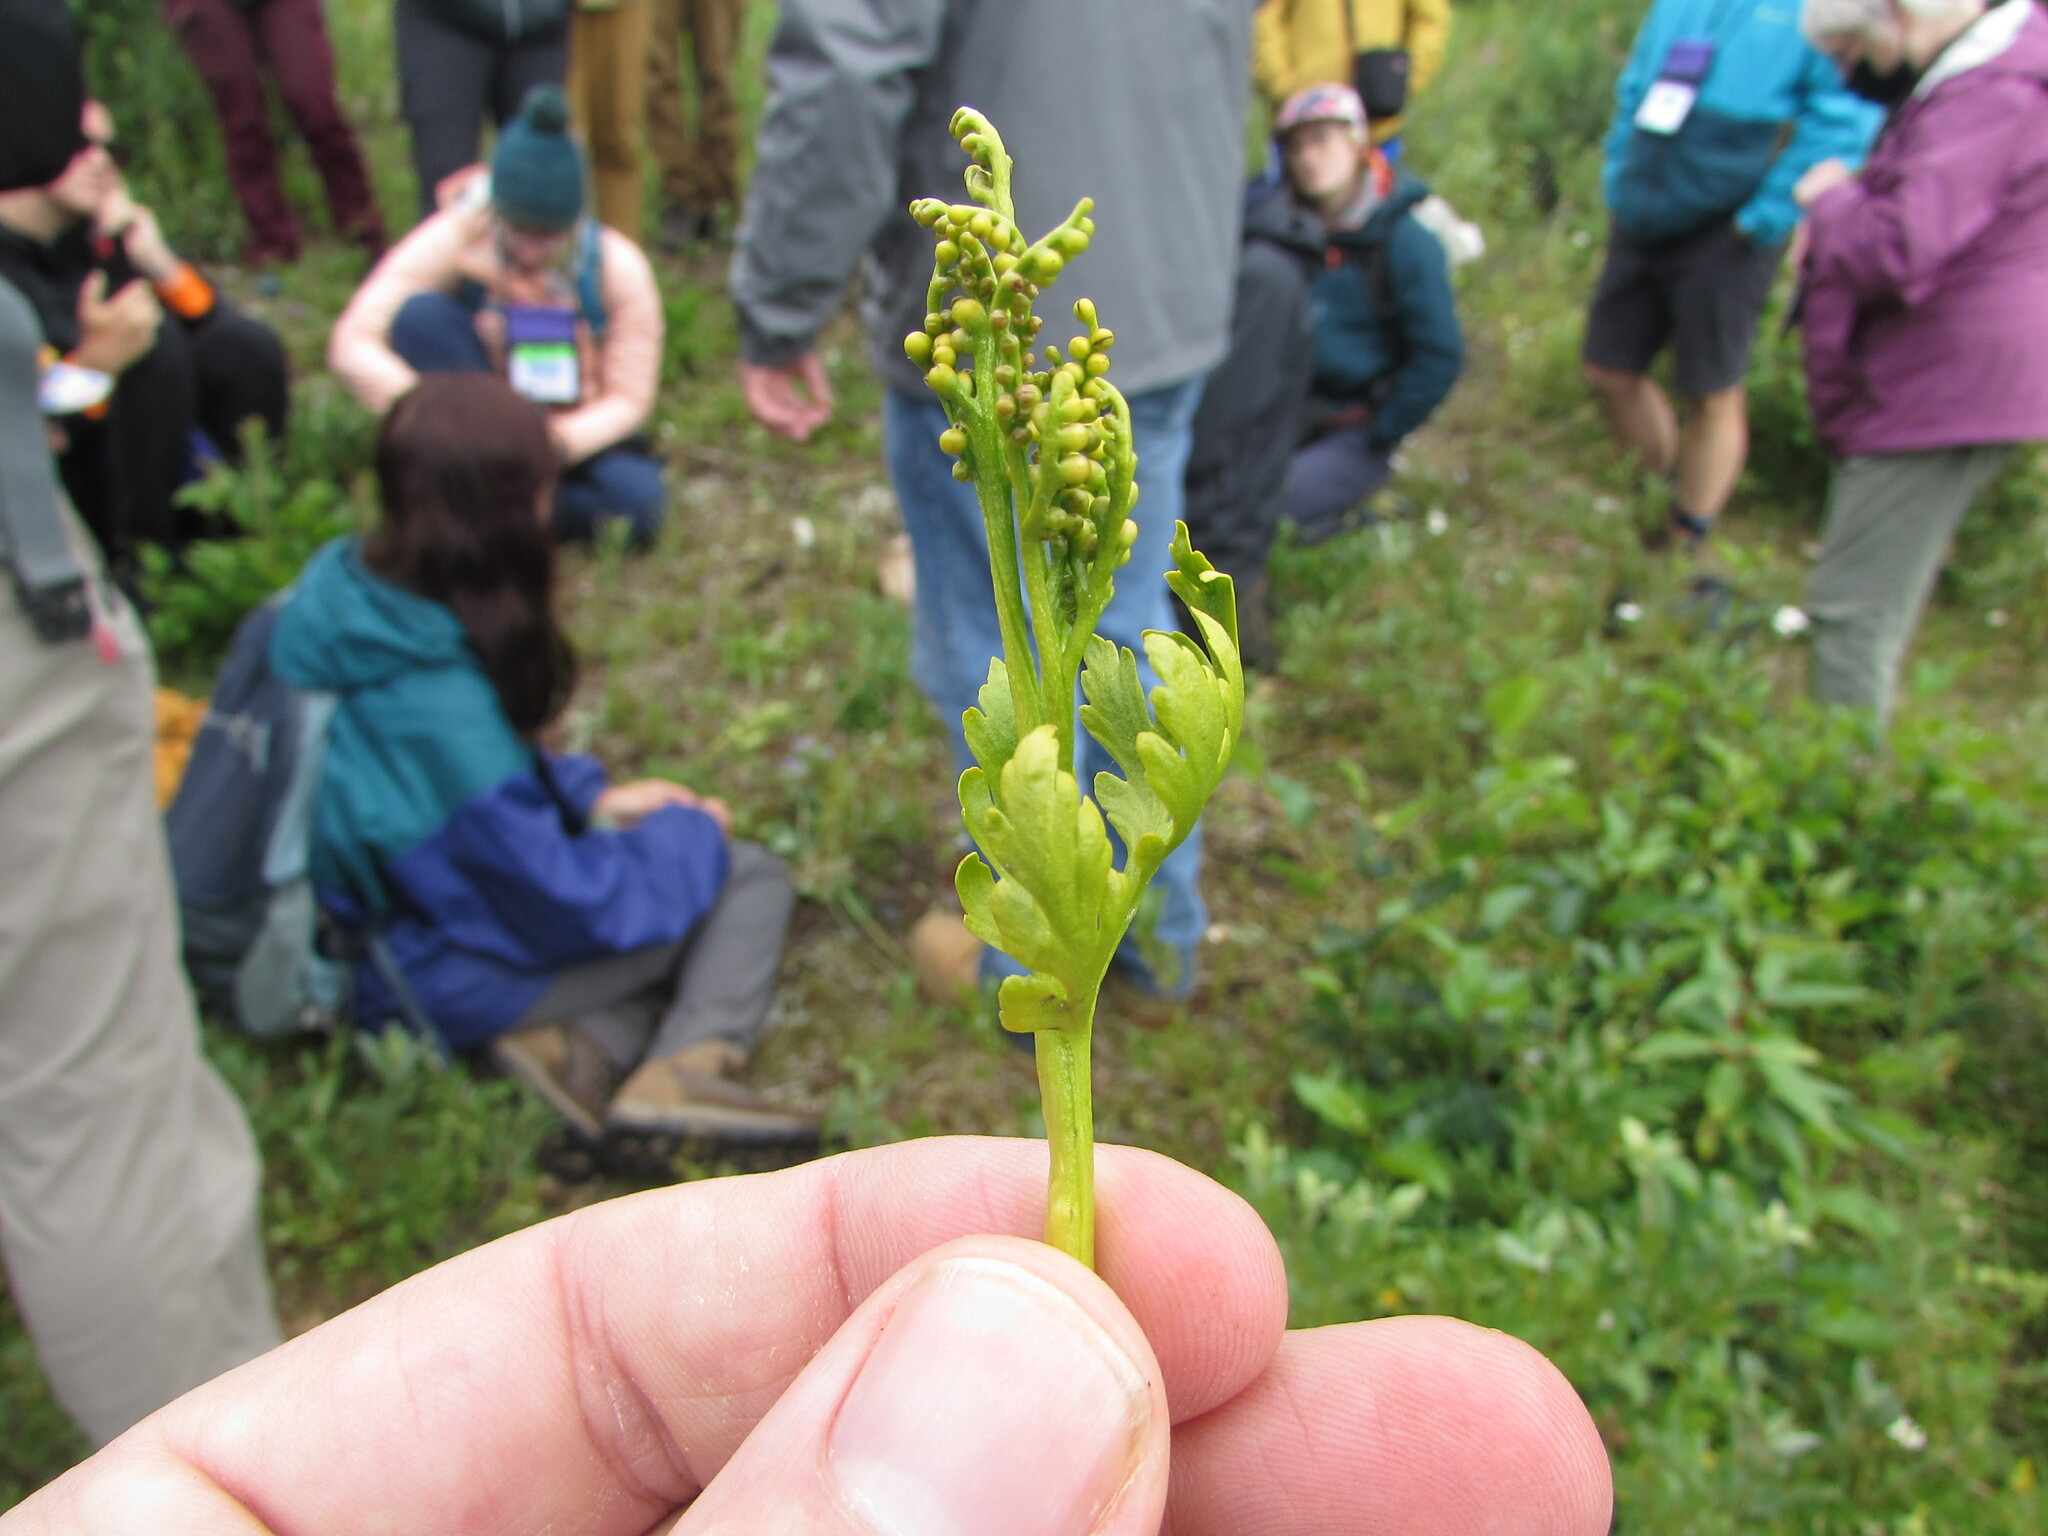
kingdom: Plantae
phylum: Tracheophyta
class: Polypodiopsida
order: Ophioglossales
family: Ophioglossaceae
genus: Botrychium
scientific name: Botrychium lanceolatum
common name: Lance-leaved moonwort
